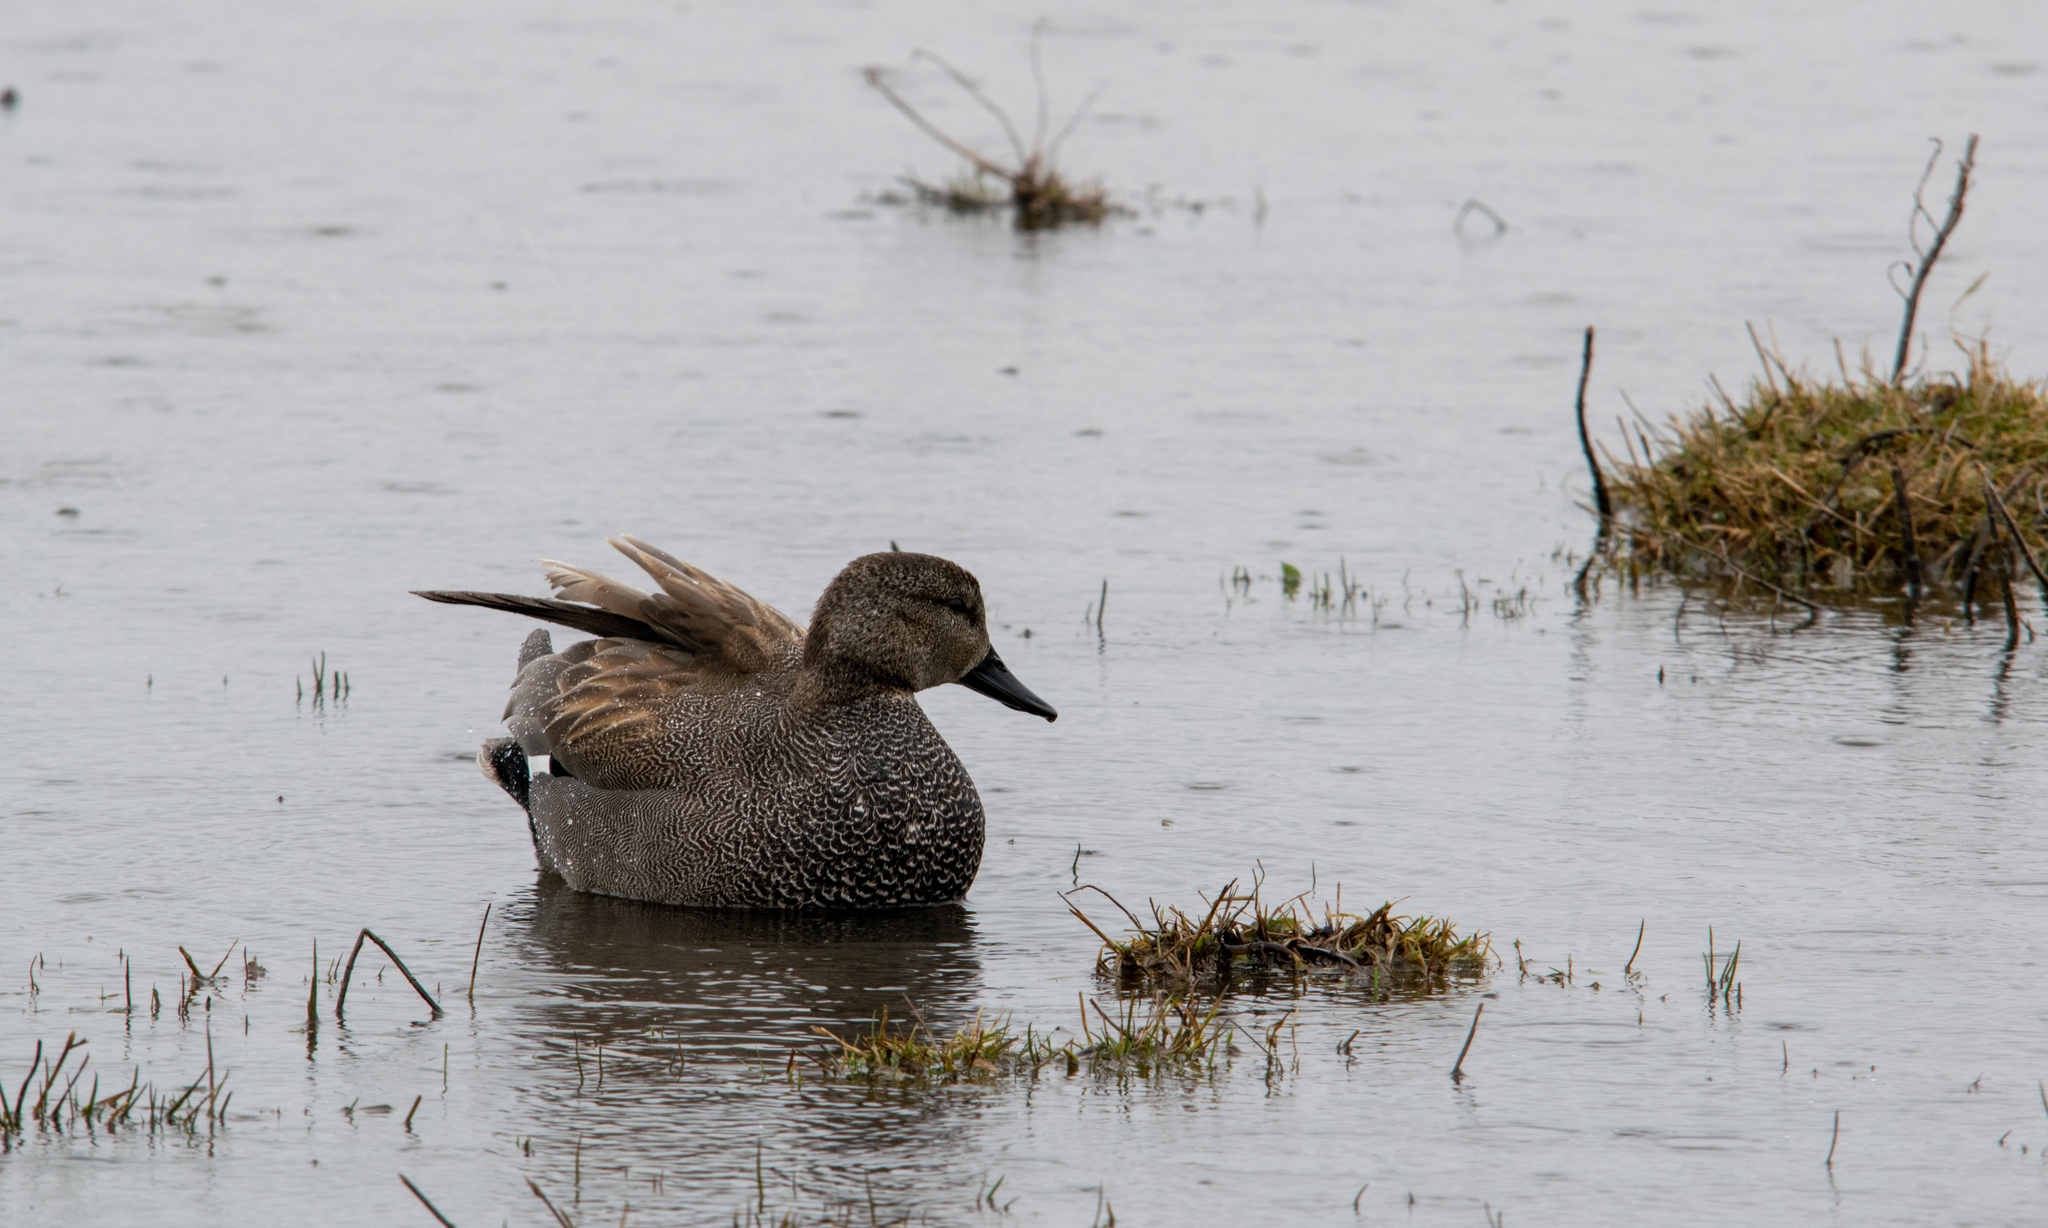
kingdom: Animalia
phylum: Chordata
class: Aves
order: Anseriformes
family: Anatidae
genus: Mareca
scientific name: Mareca strepera
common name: Gadwall
